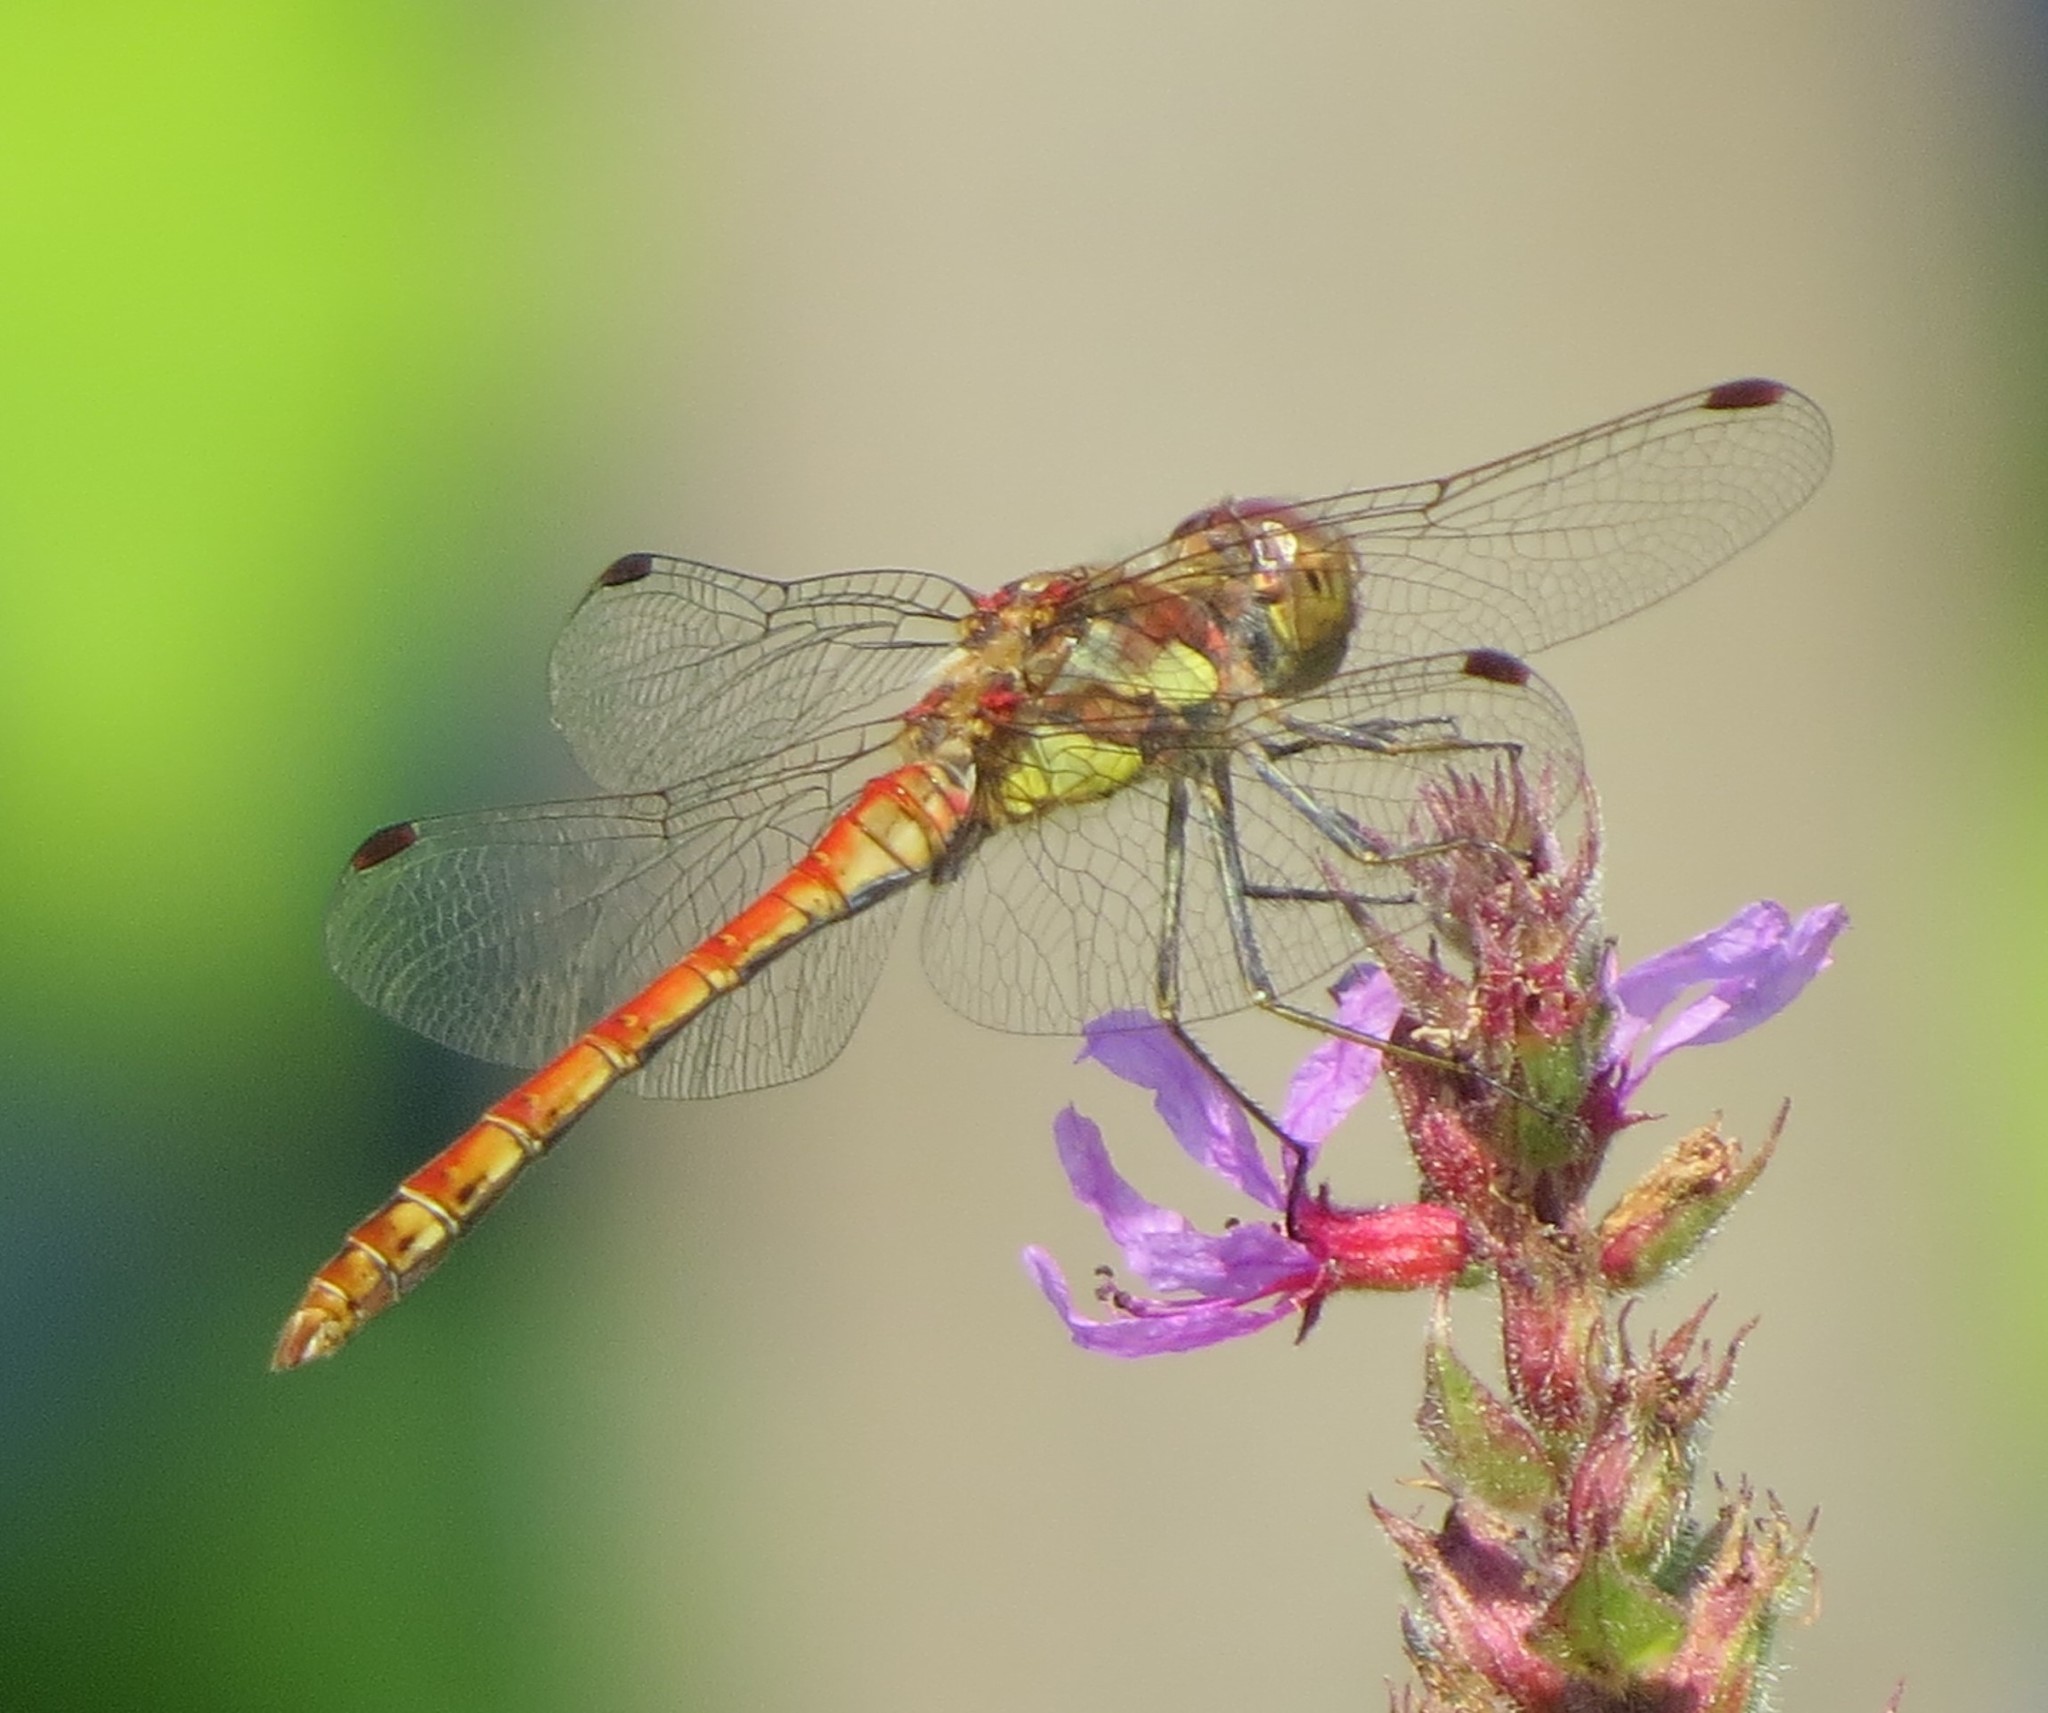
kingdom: Animalia
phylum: Arthropoda
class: Insecta
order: Odonata
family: Libellulidae
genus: Sympetrum
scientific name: Sympetrum striolatum
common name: Common darter
